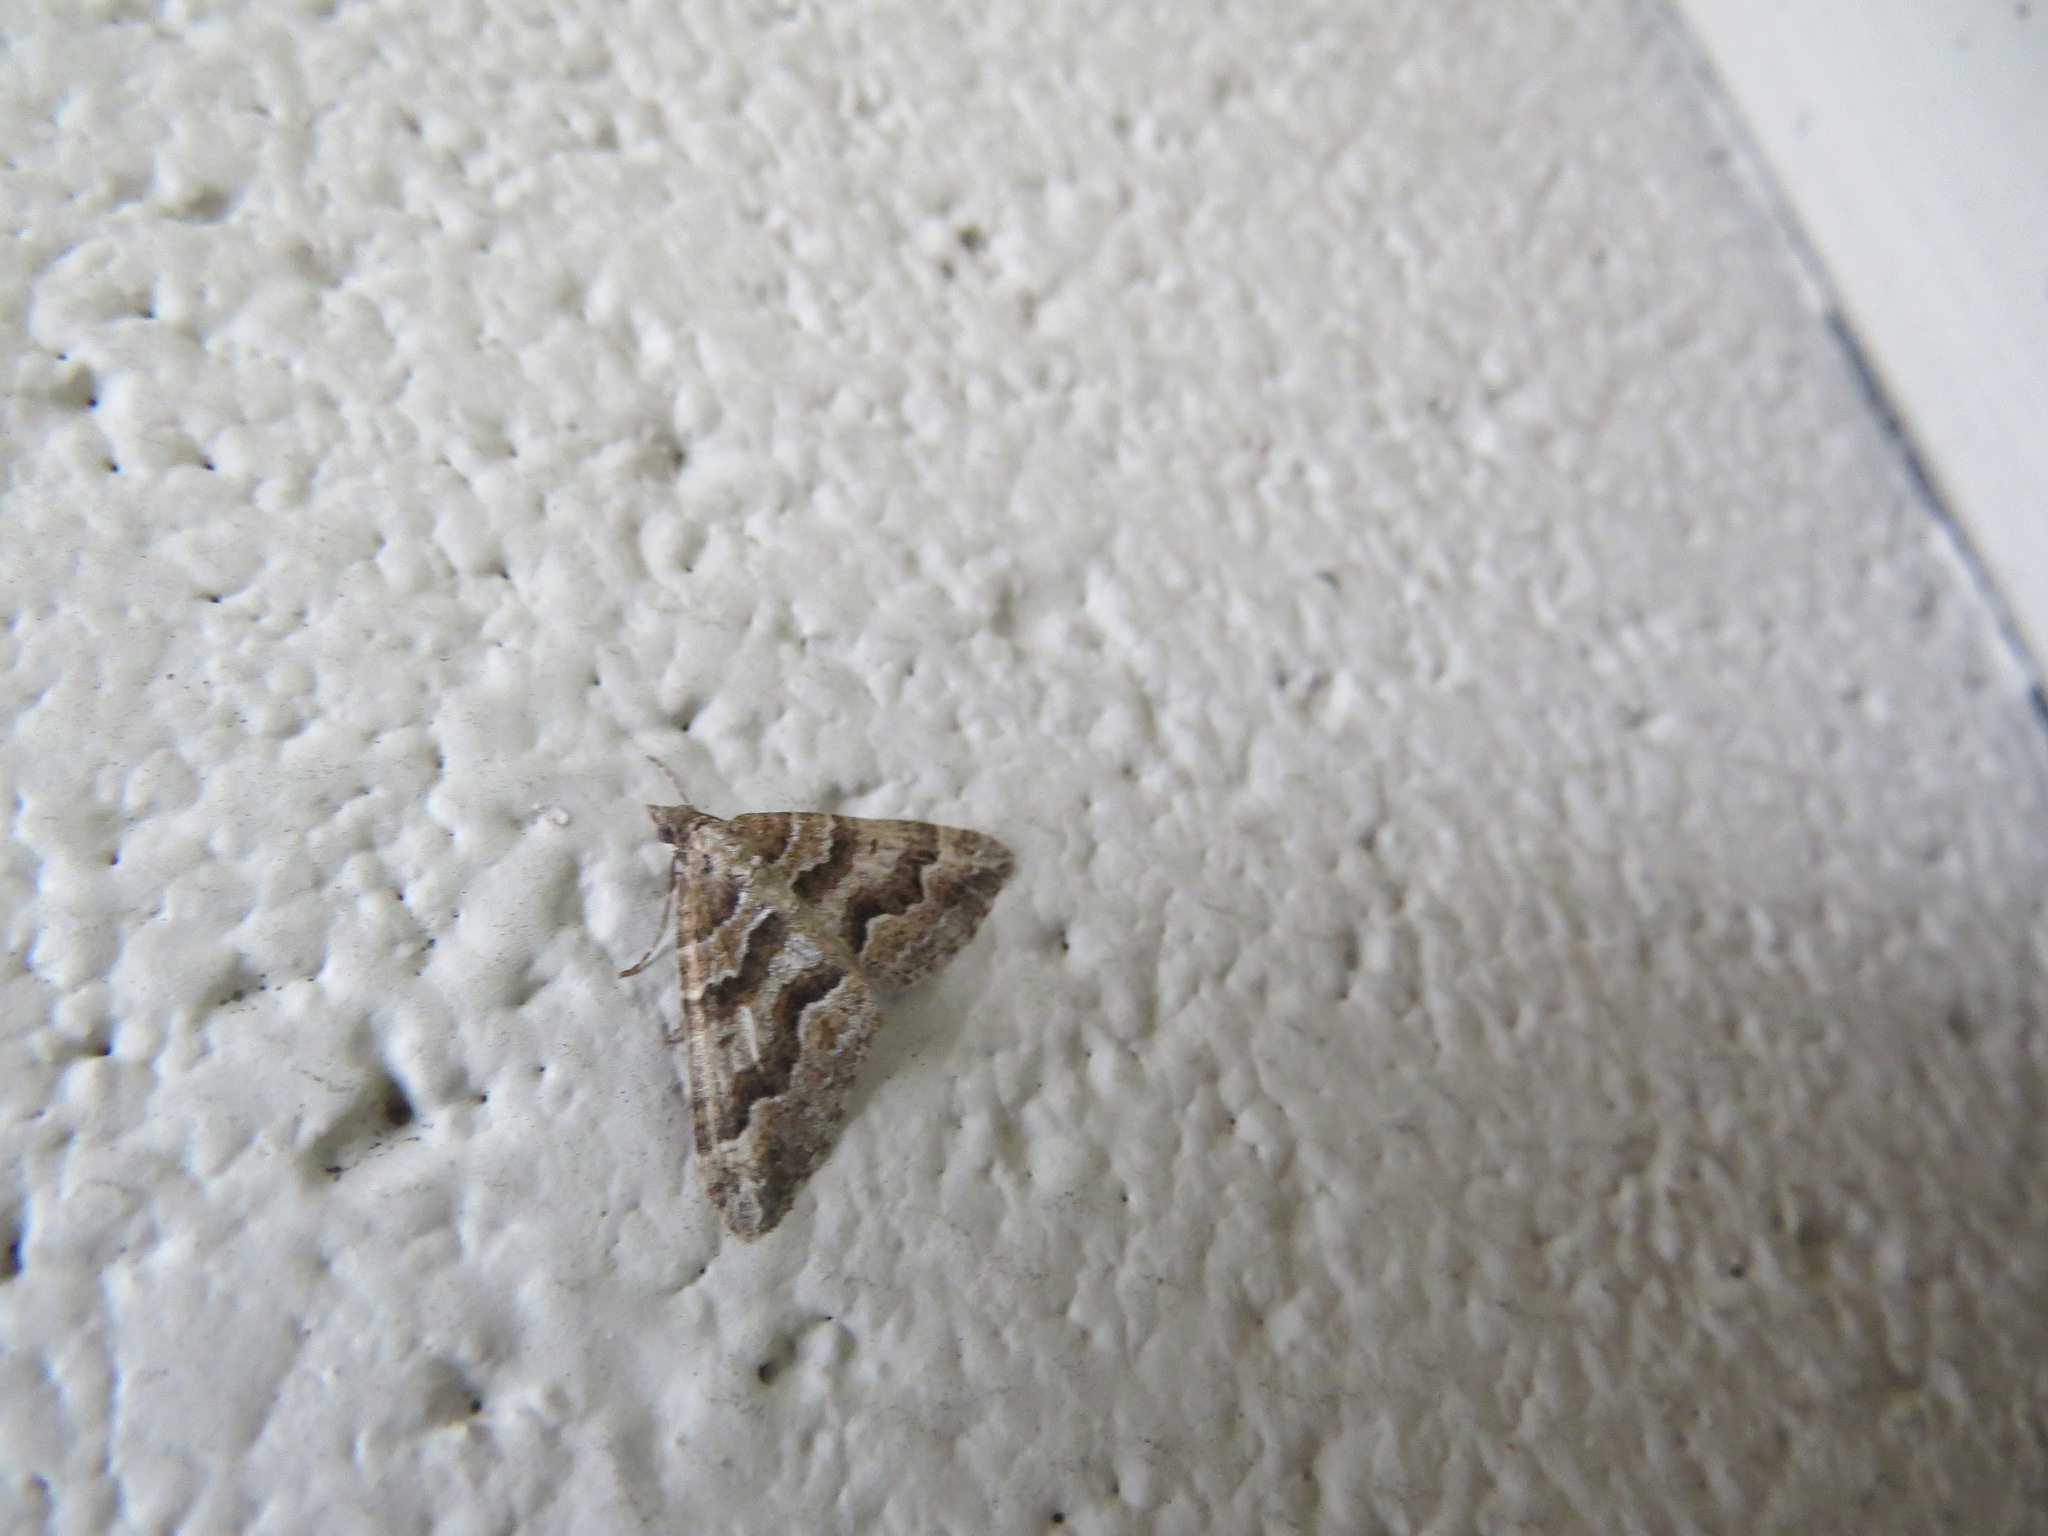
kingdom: Animalia
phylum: Arthropoda
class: Insecta
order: Lepidoptera
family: Geometridae
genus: Perizoma
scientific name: Perizoma epictata
